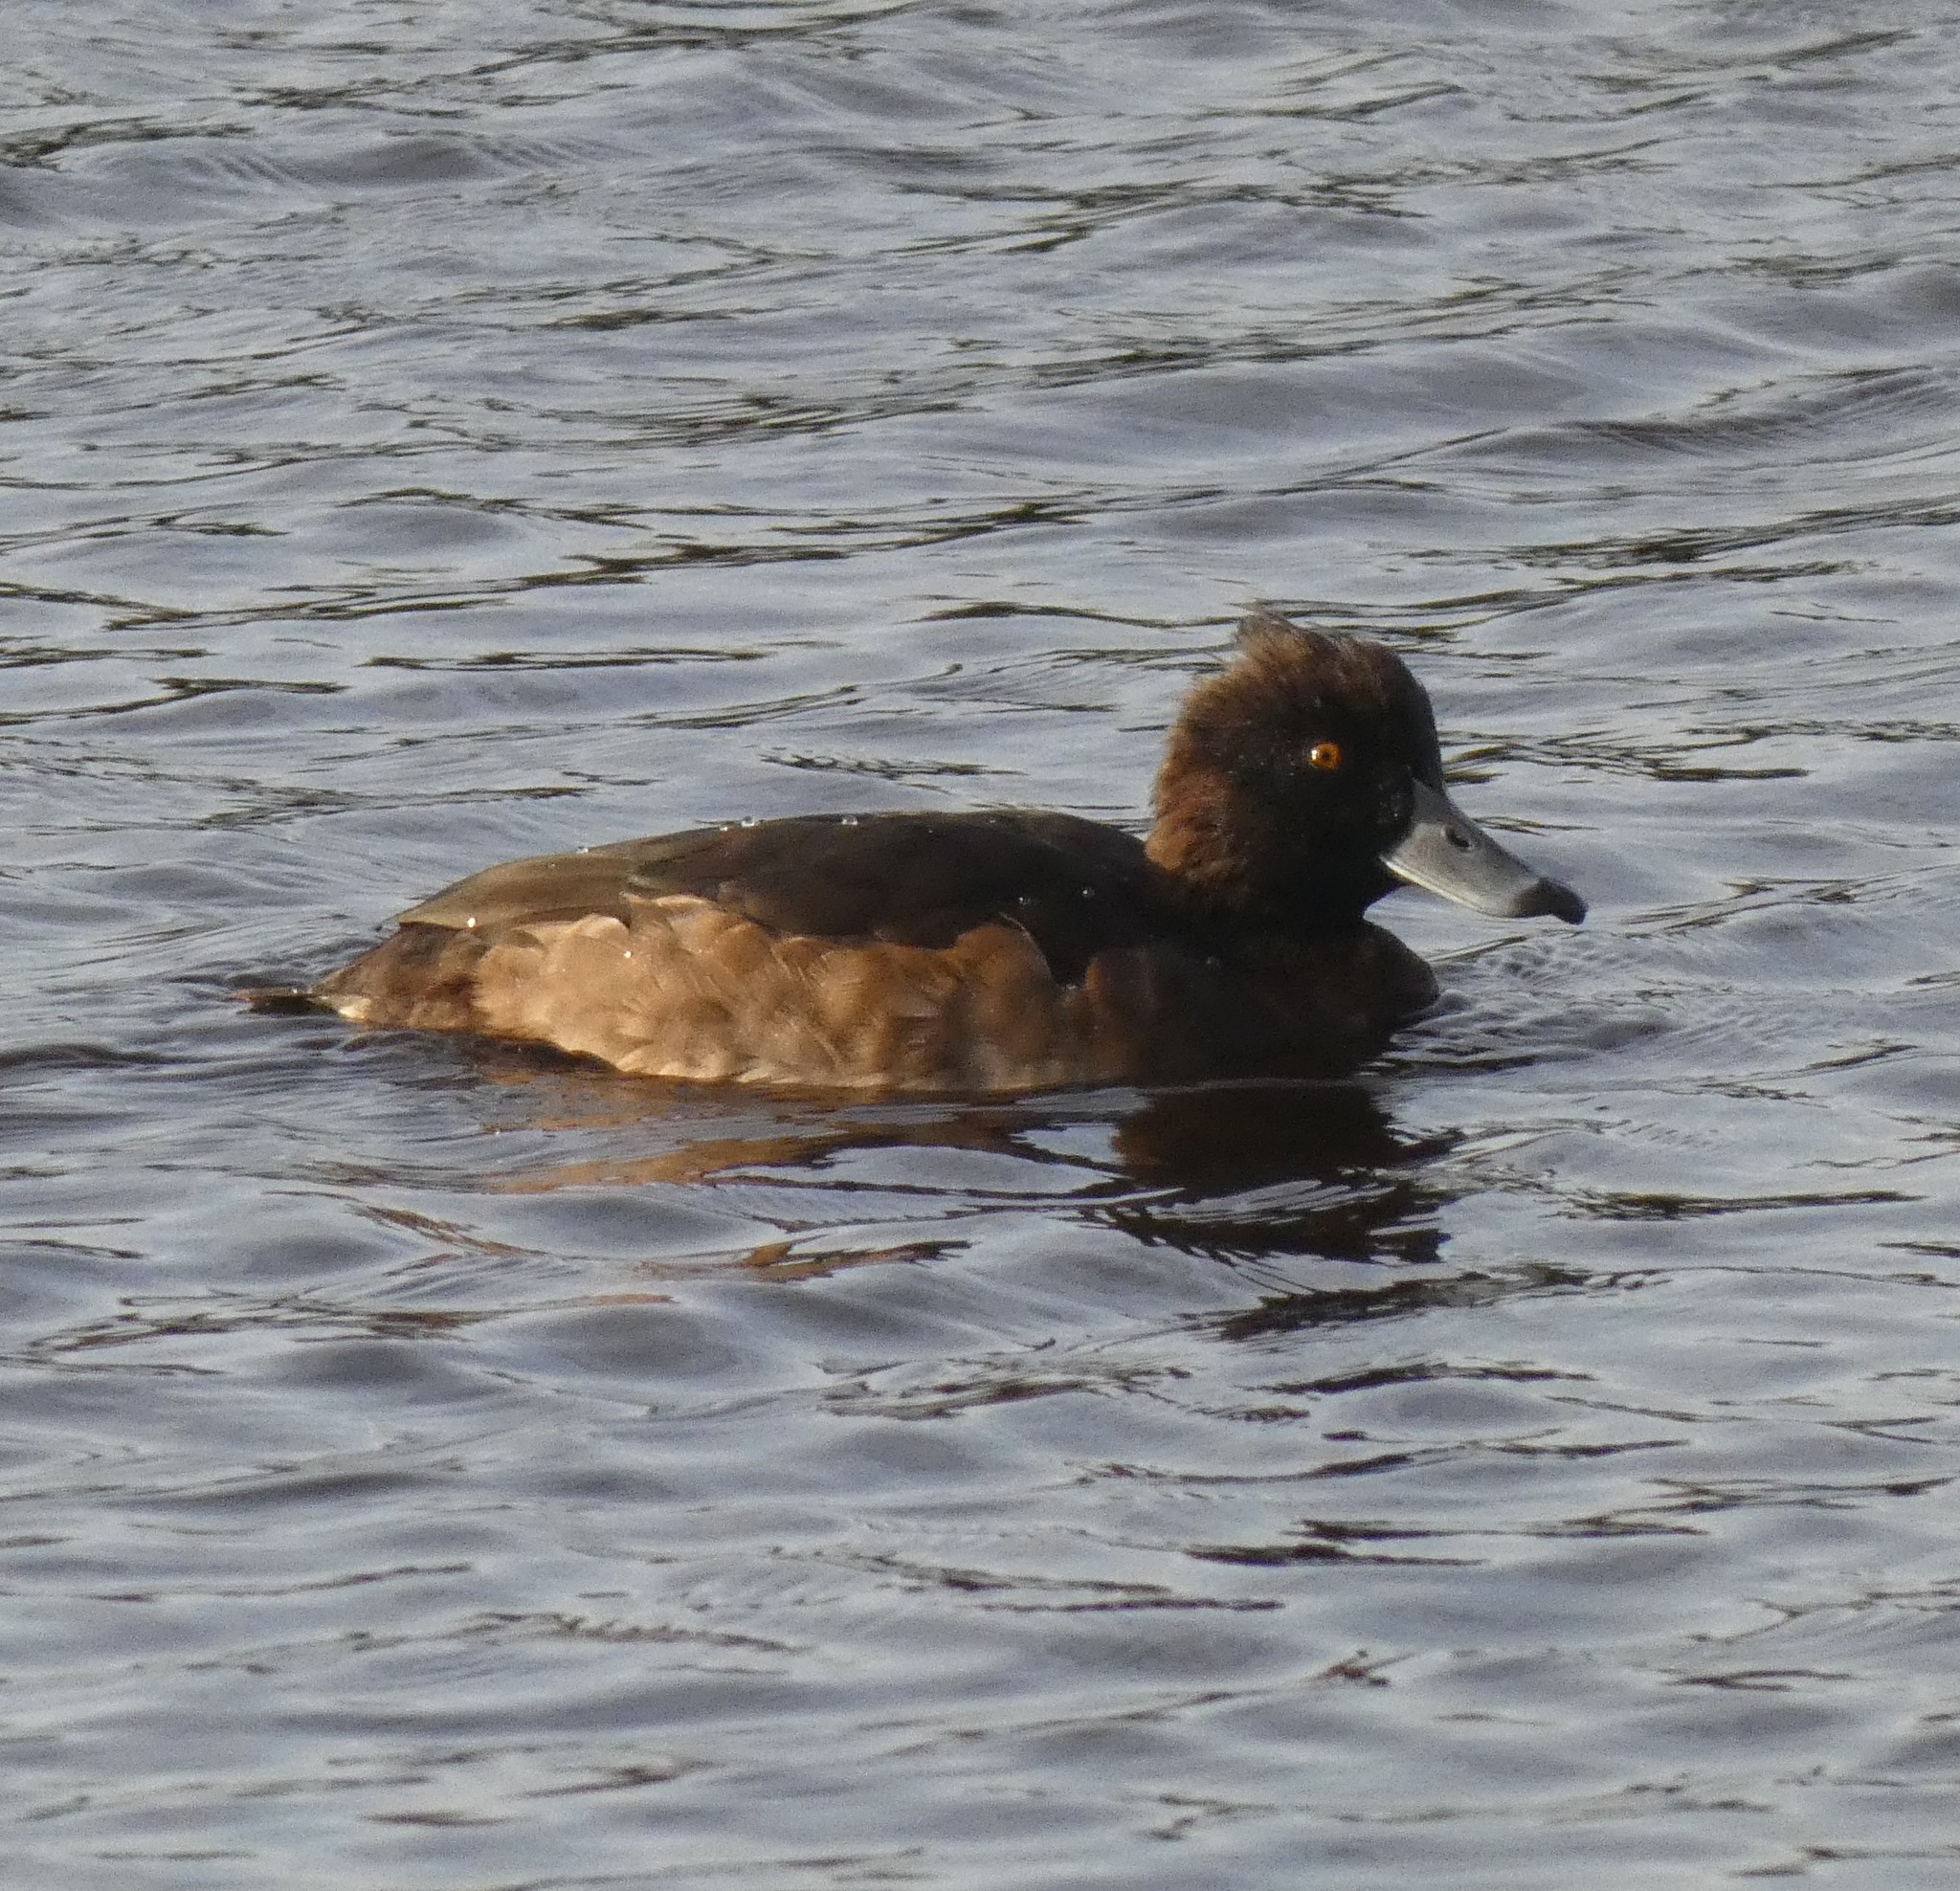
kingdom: Animalia
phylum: Chordata
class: Aves
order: Anseriformes
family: Anatidae
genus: Aythya
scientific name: Aythya fuligula
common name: Tufted duck
